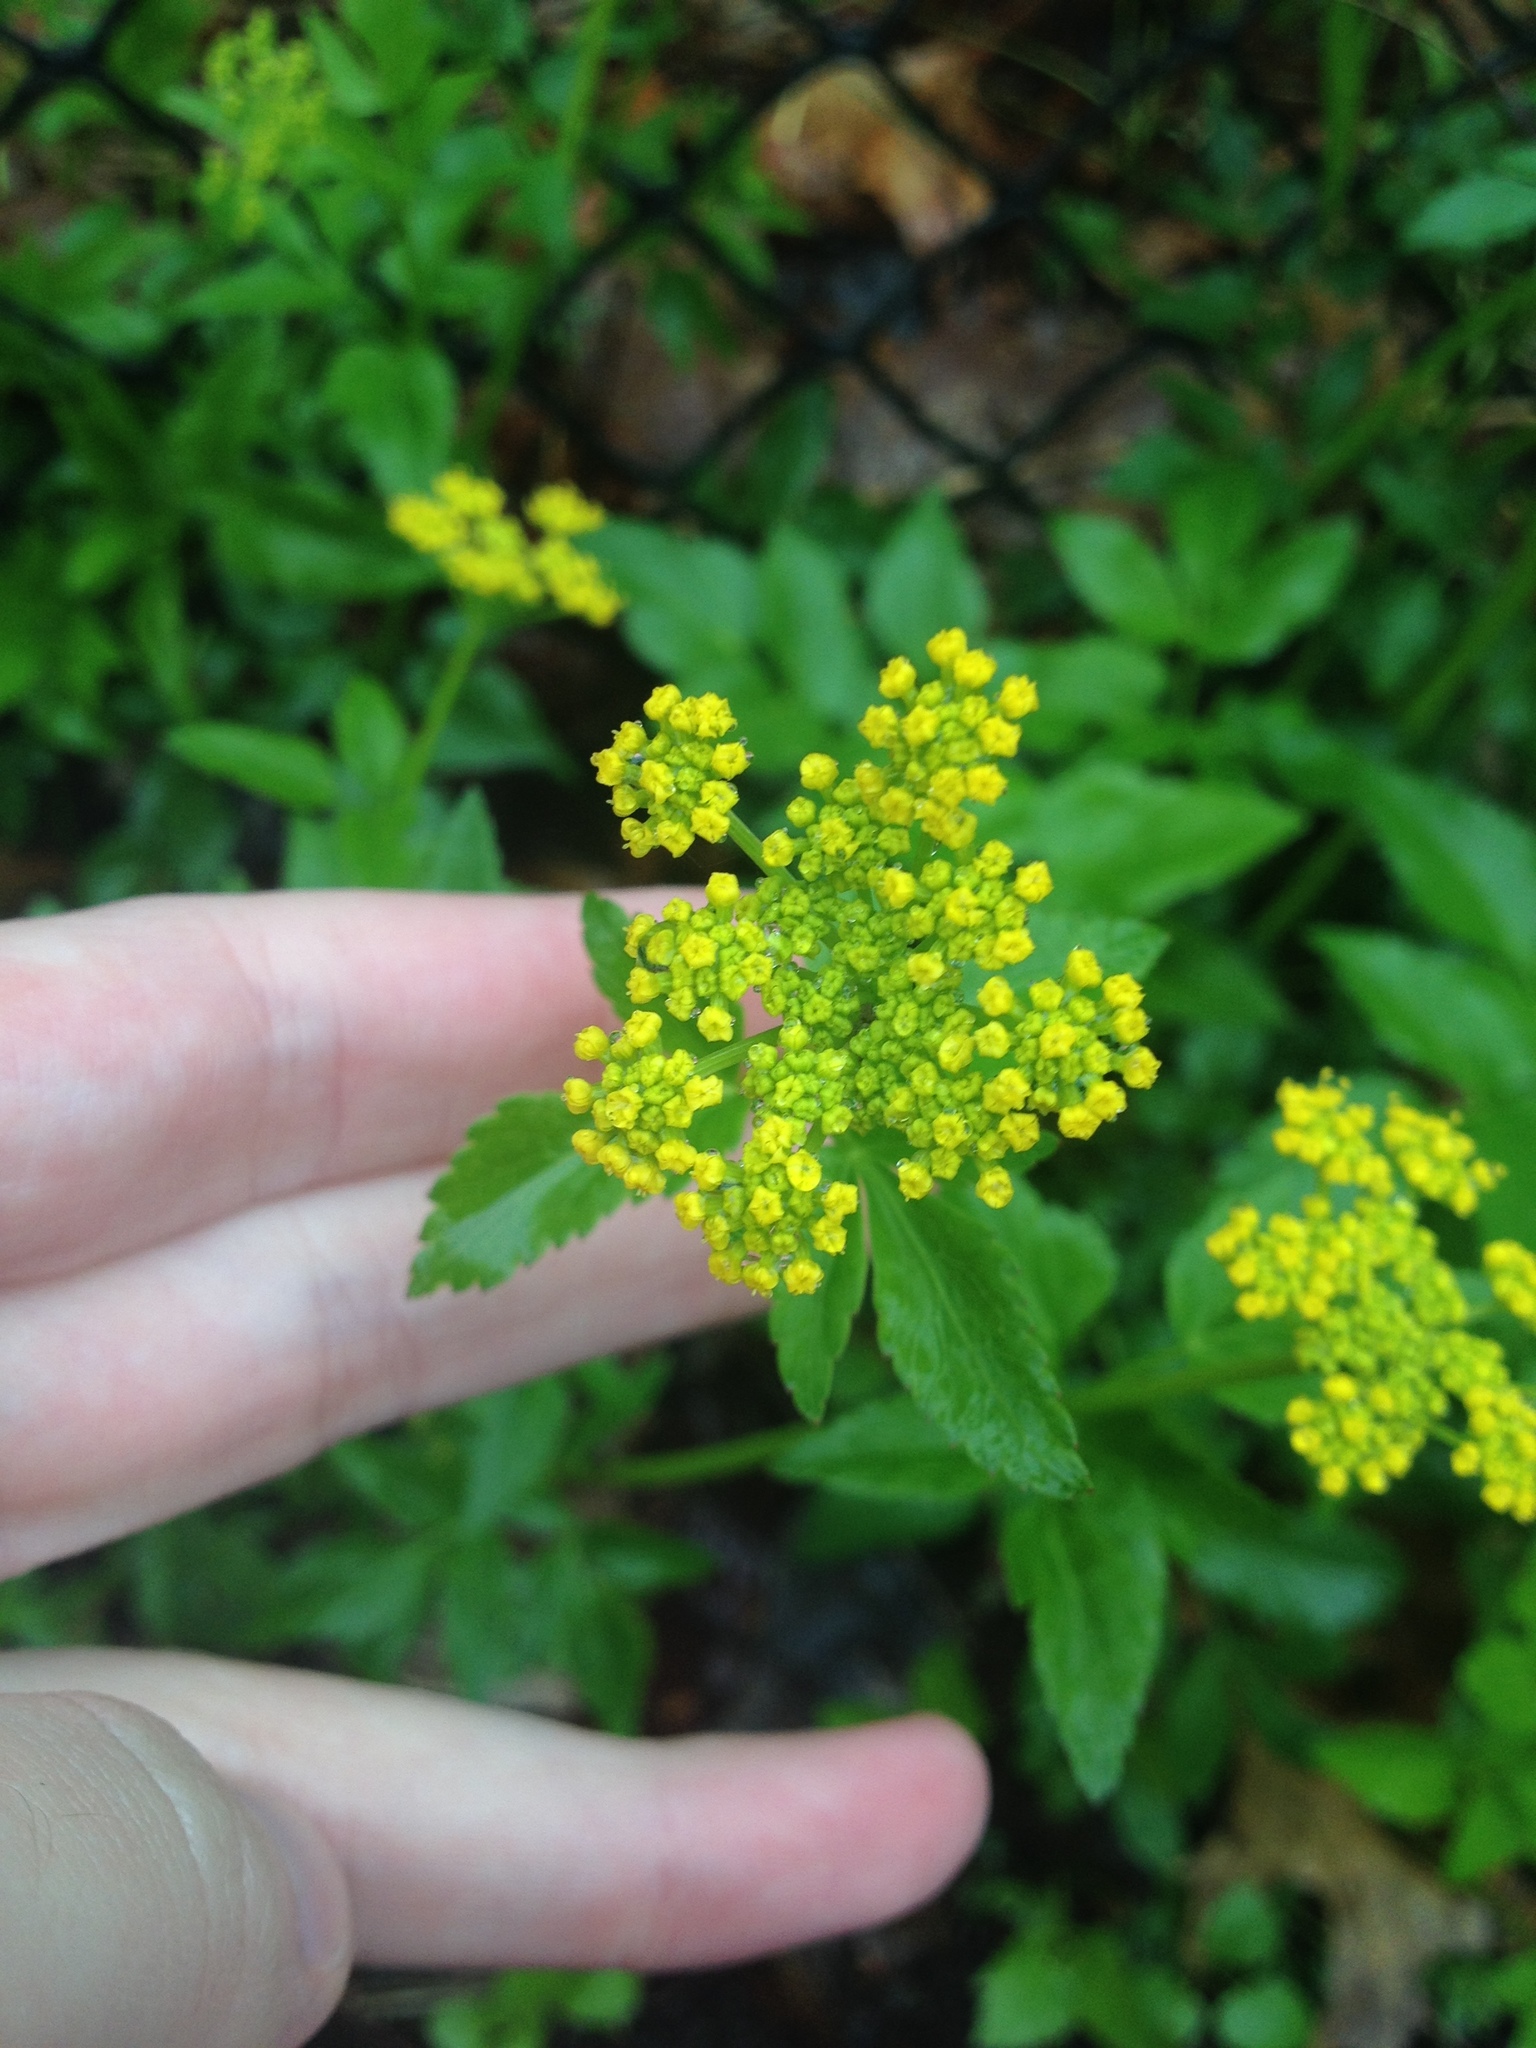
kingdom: Plantae
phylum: Tracheophyta
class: Magnoliopsida
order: Apiales
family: Apiaceae
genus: Zizia
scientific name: Zizia aurea
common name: Golden alexanders
